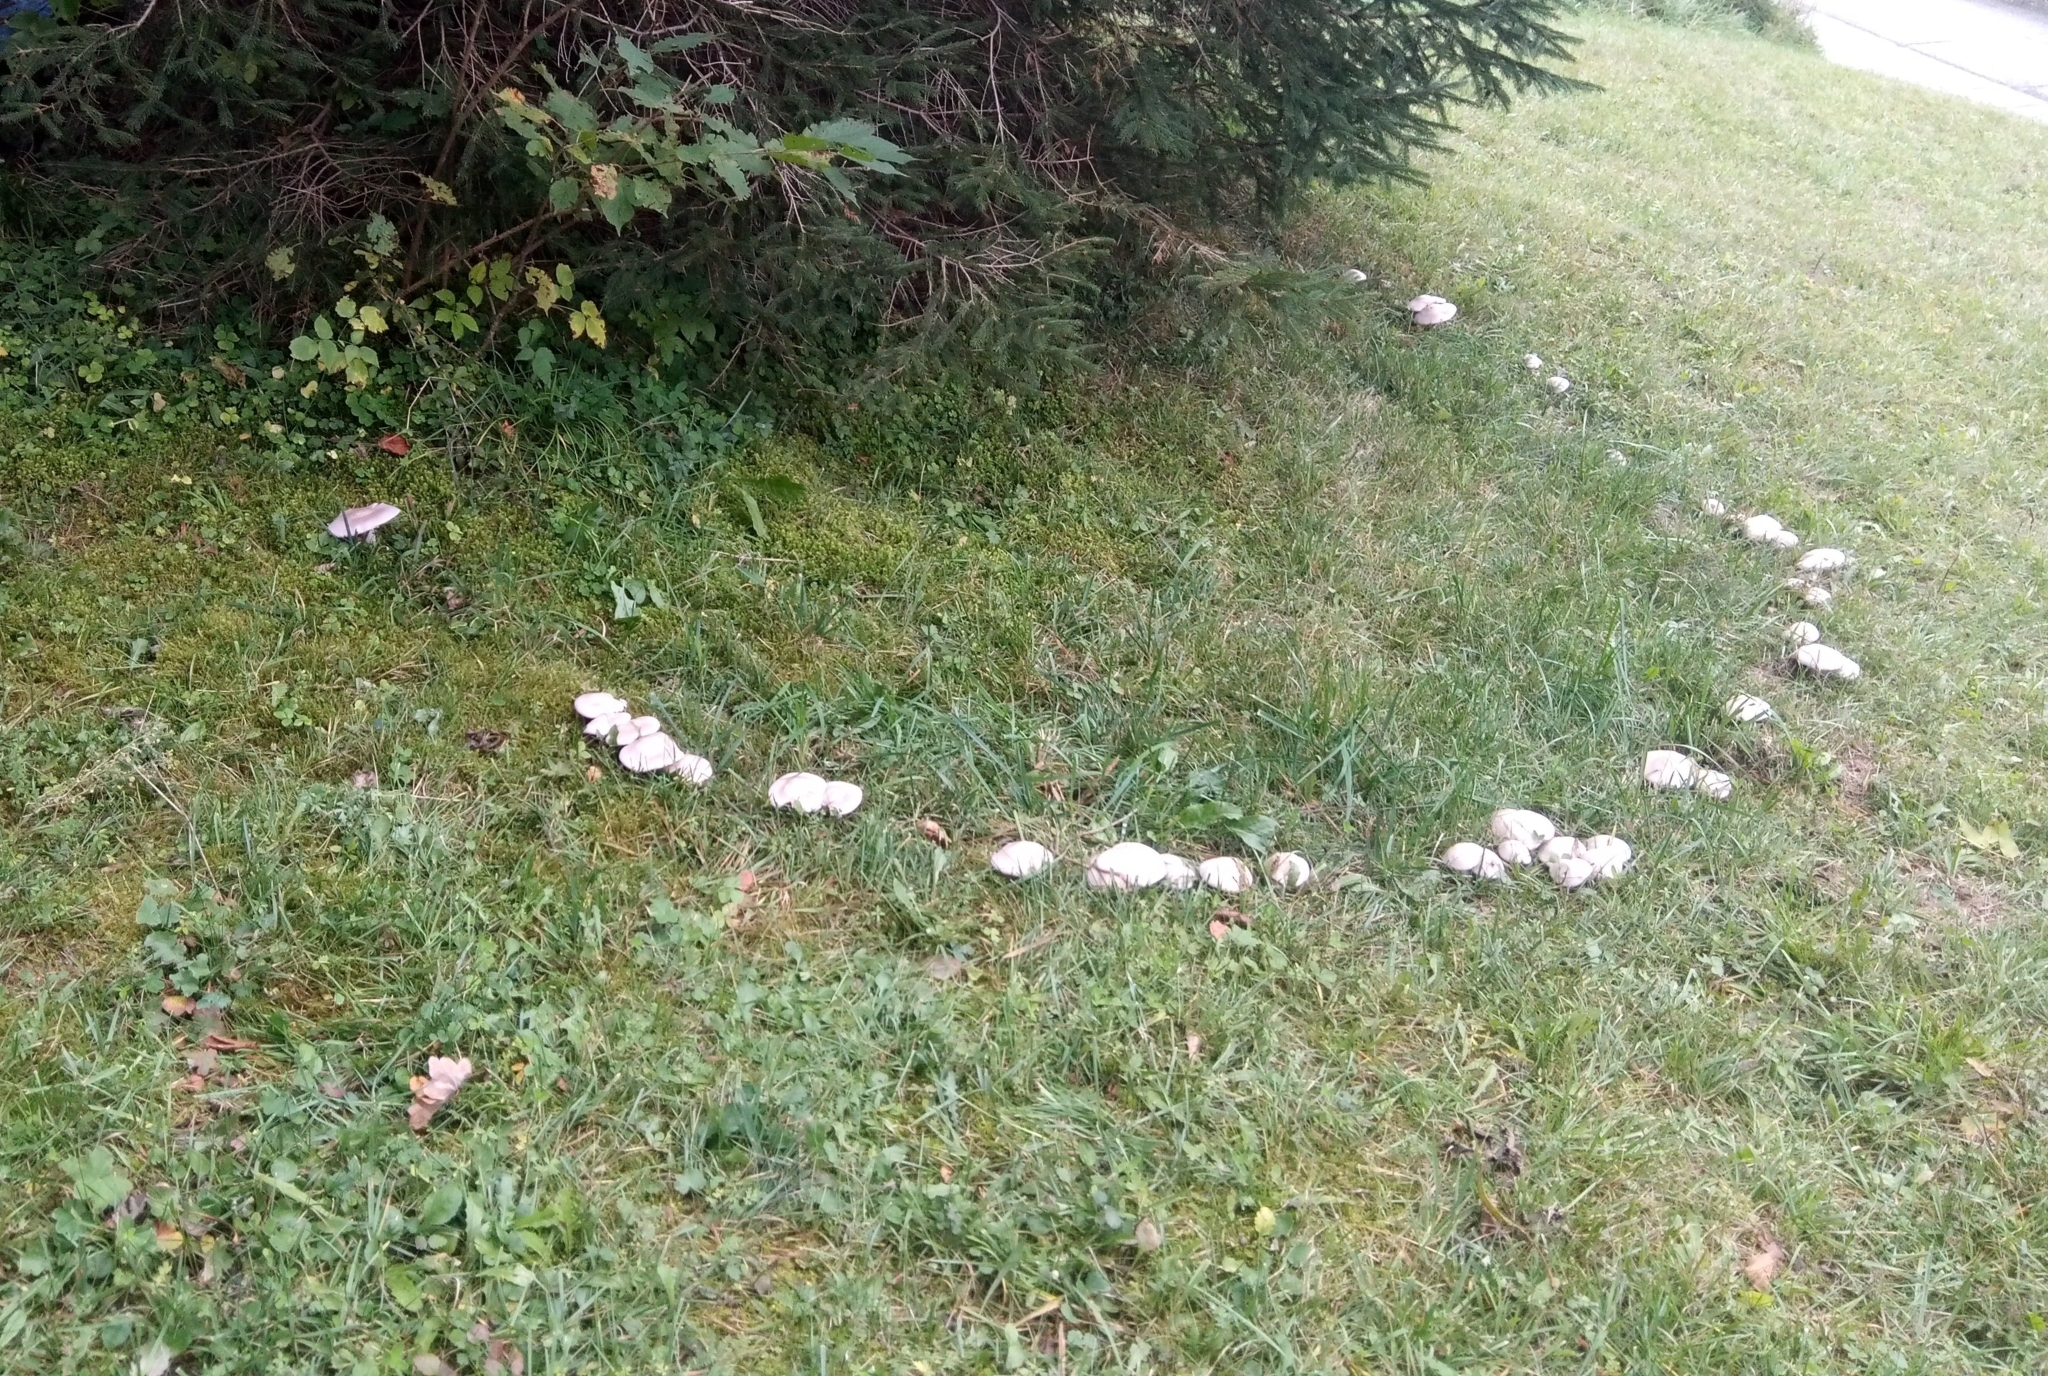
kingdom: Fungi
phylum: Basidiomycota
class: Agaricomycetes
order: Agaricales
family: Tricholomataceae
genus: Lepista
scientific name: Lepista glaucocana
